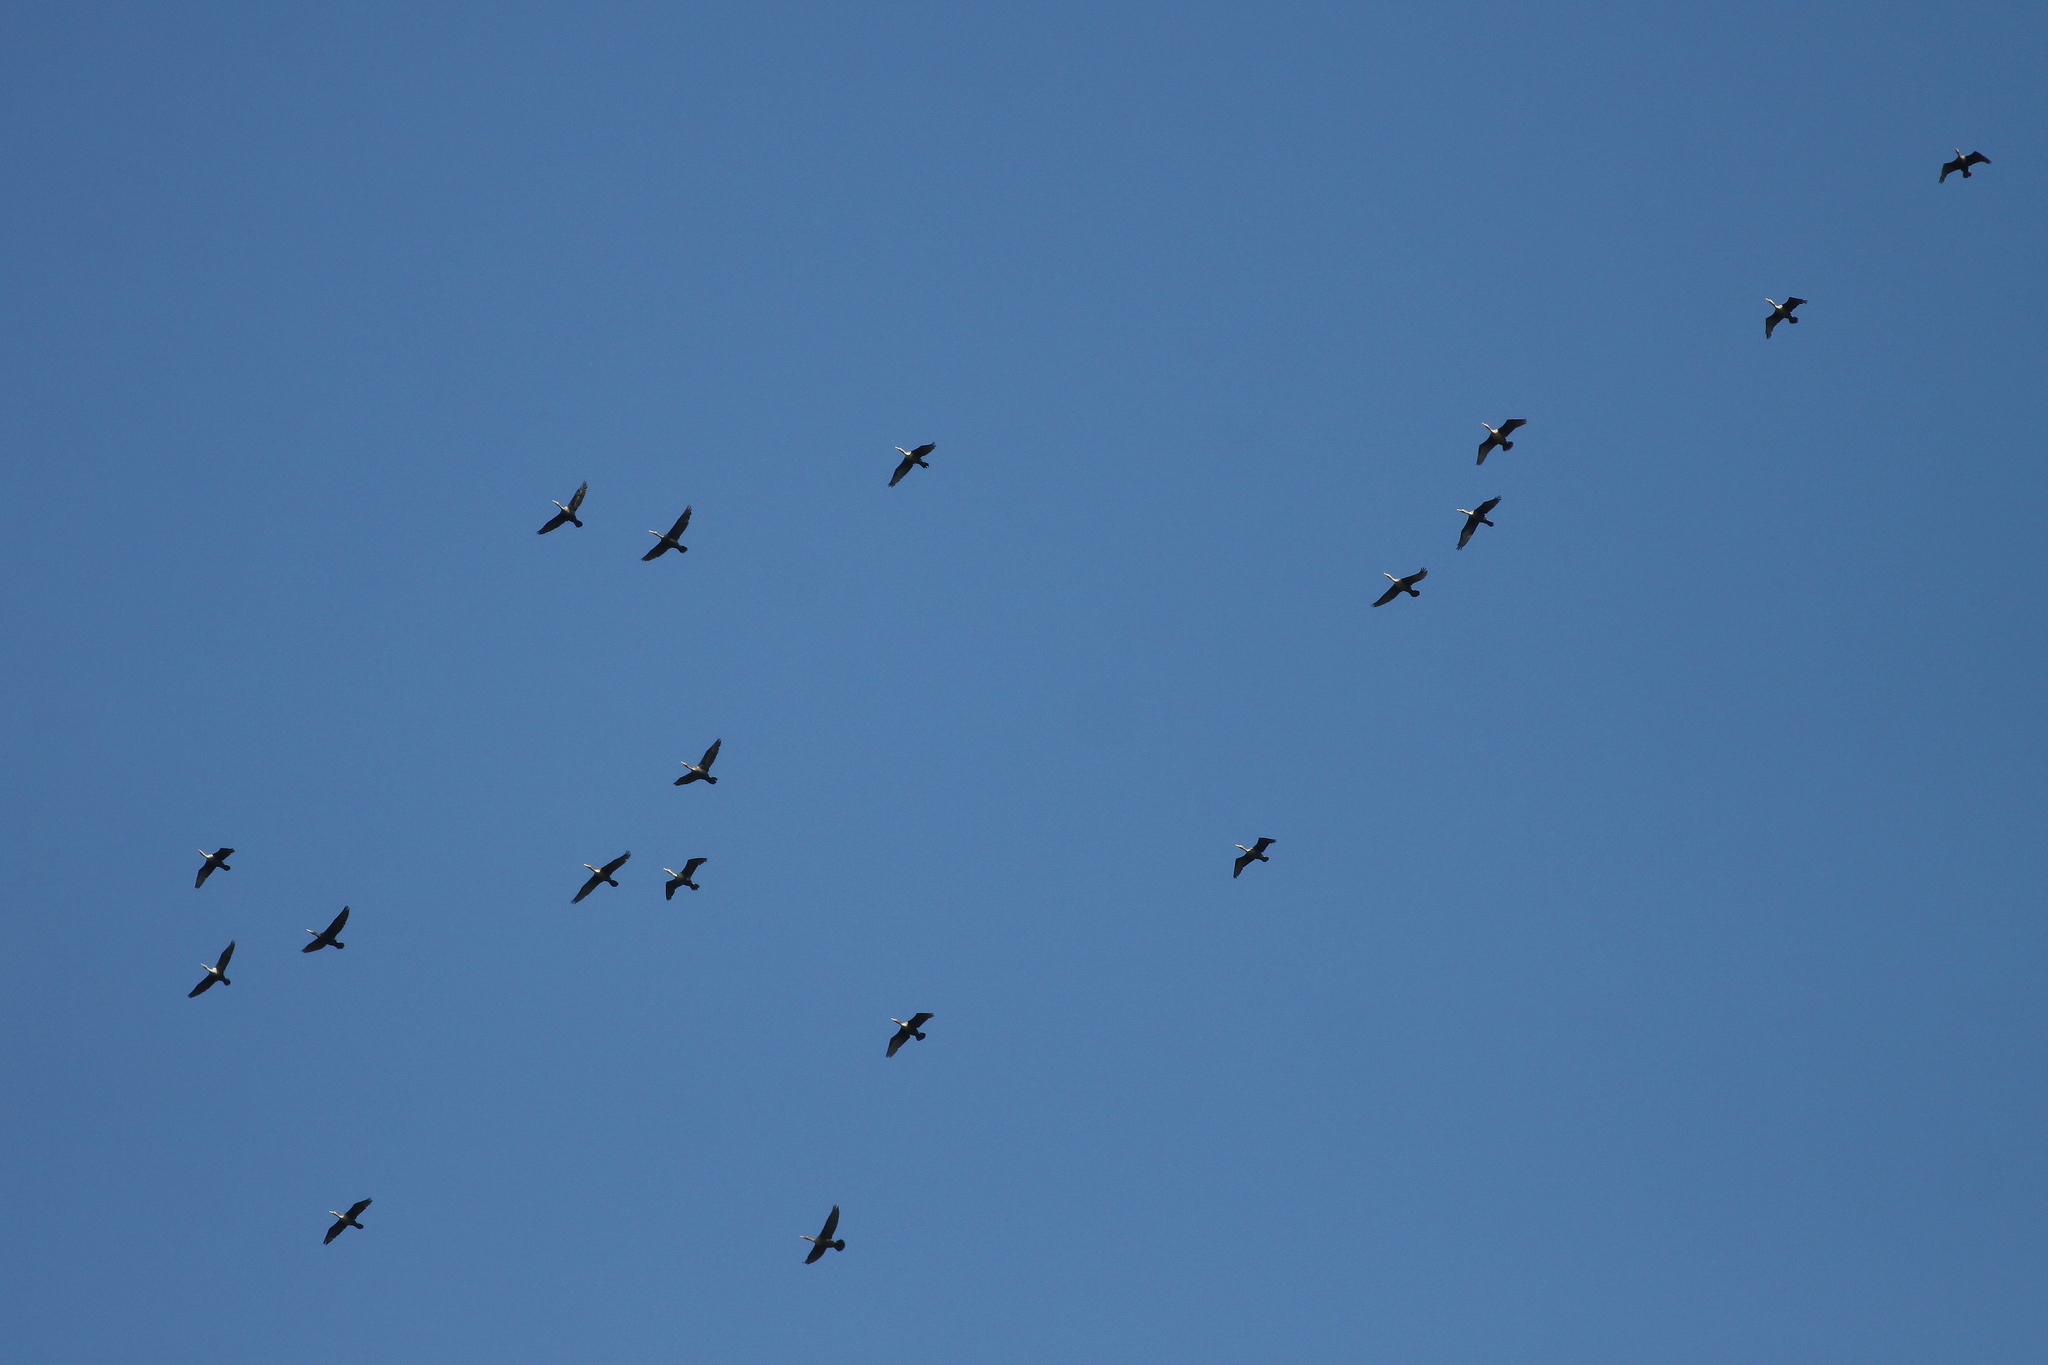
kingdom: Animalia
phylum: Chordata
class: Aves
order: Suliformes
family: Phalacrocoracidae
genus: Phalacrocorax
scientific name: Phalacrocorax auritus
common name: Double-crested cormorant
